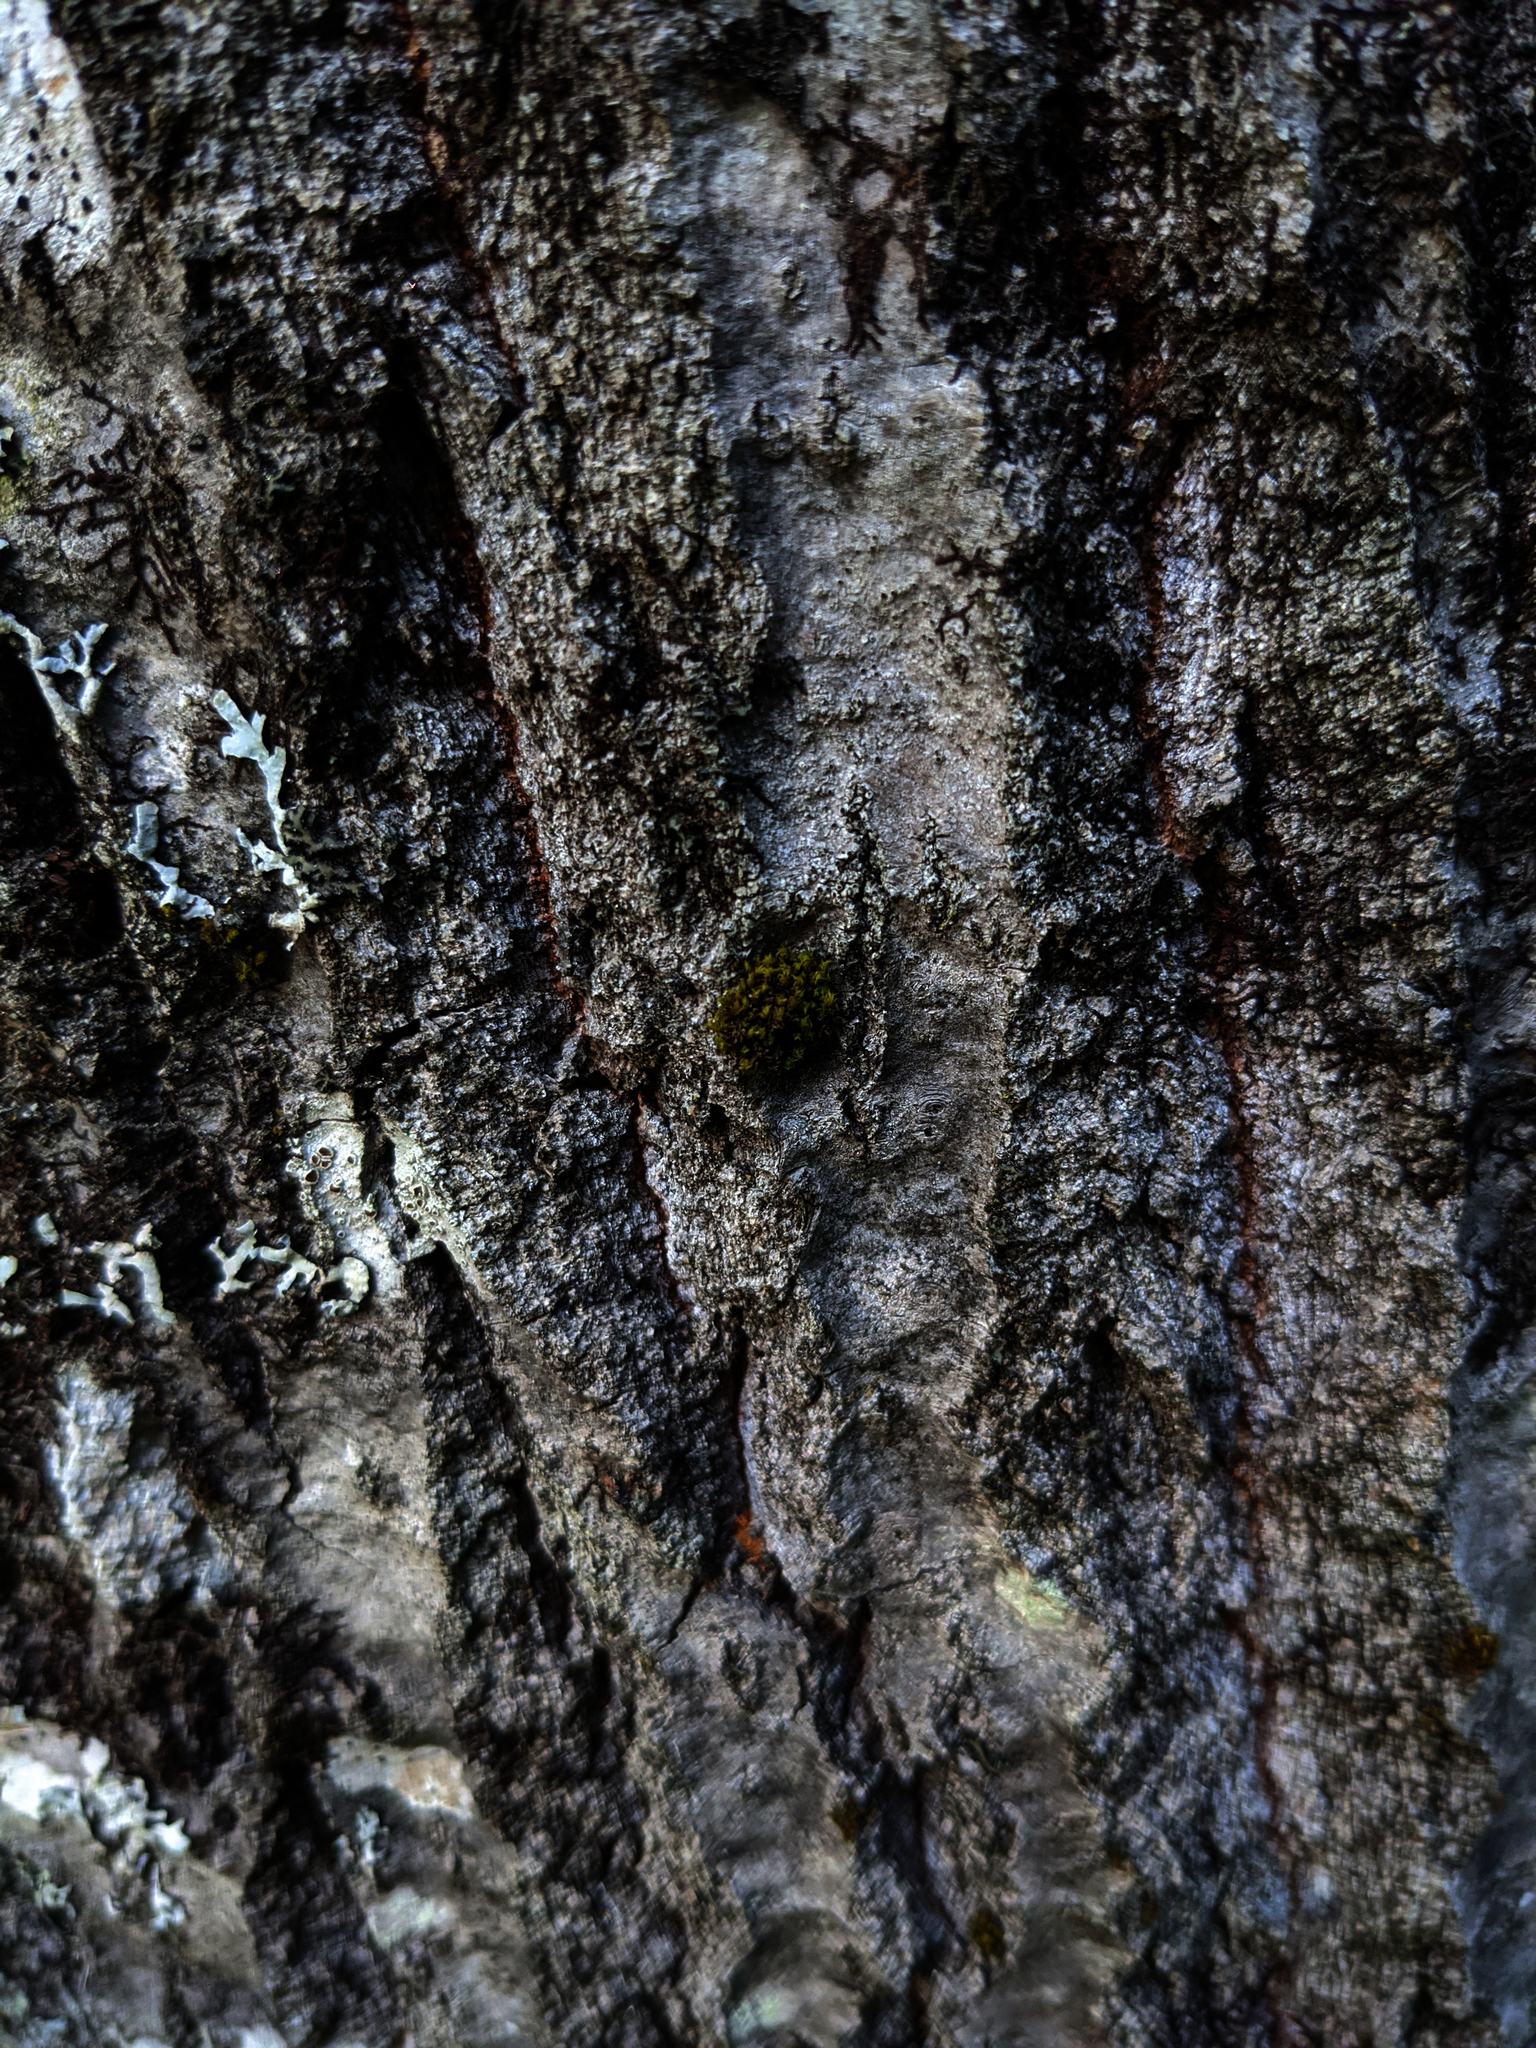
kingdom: Plantae
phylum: Bryophyta
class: Bryopsida
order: Orthotrichales
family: Orthotrichaceae
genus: Ulota
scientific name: Ulota crispa
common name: Crisped pincushion moss
